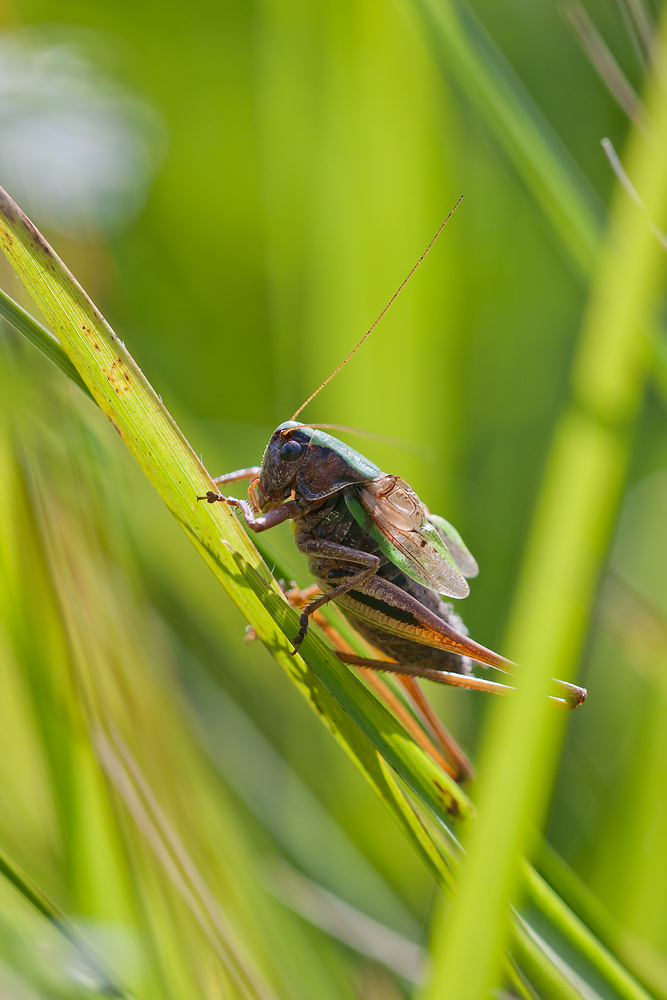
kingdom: Animalia
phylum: Arthropoda
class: Insecta
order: Orthoptera
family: Tettigoniidae
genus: Metrioptera
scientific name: Metrioptera brachyptera
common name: Bog bush-cricket
